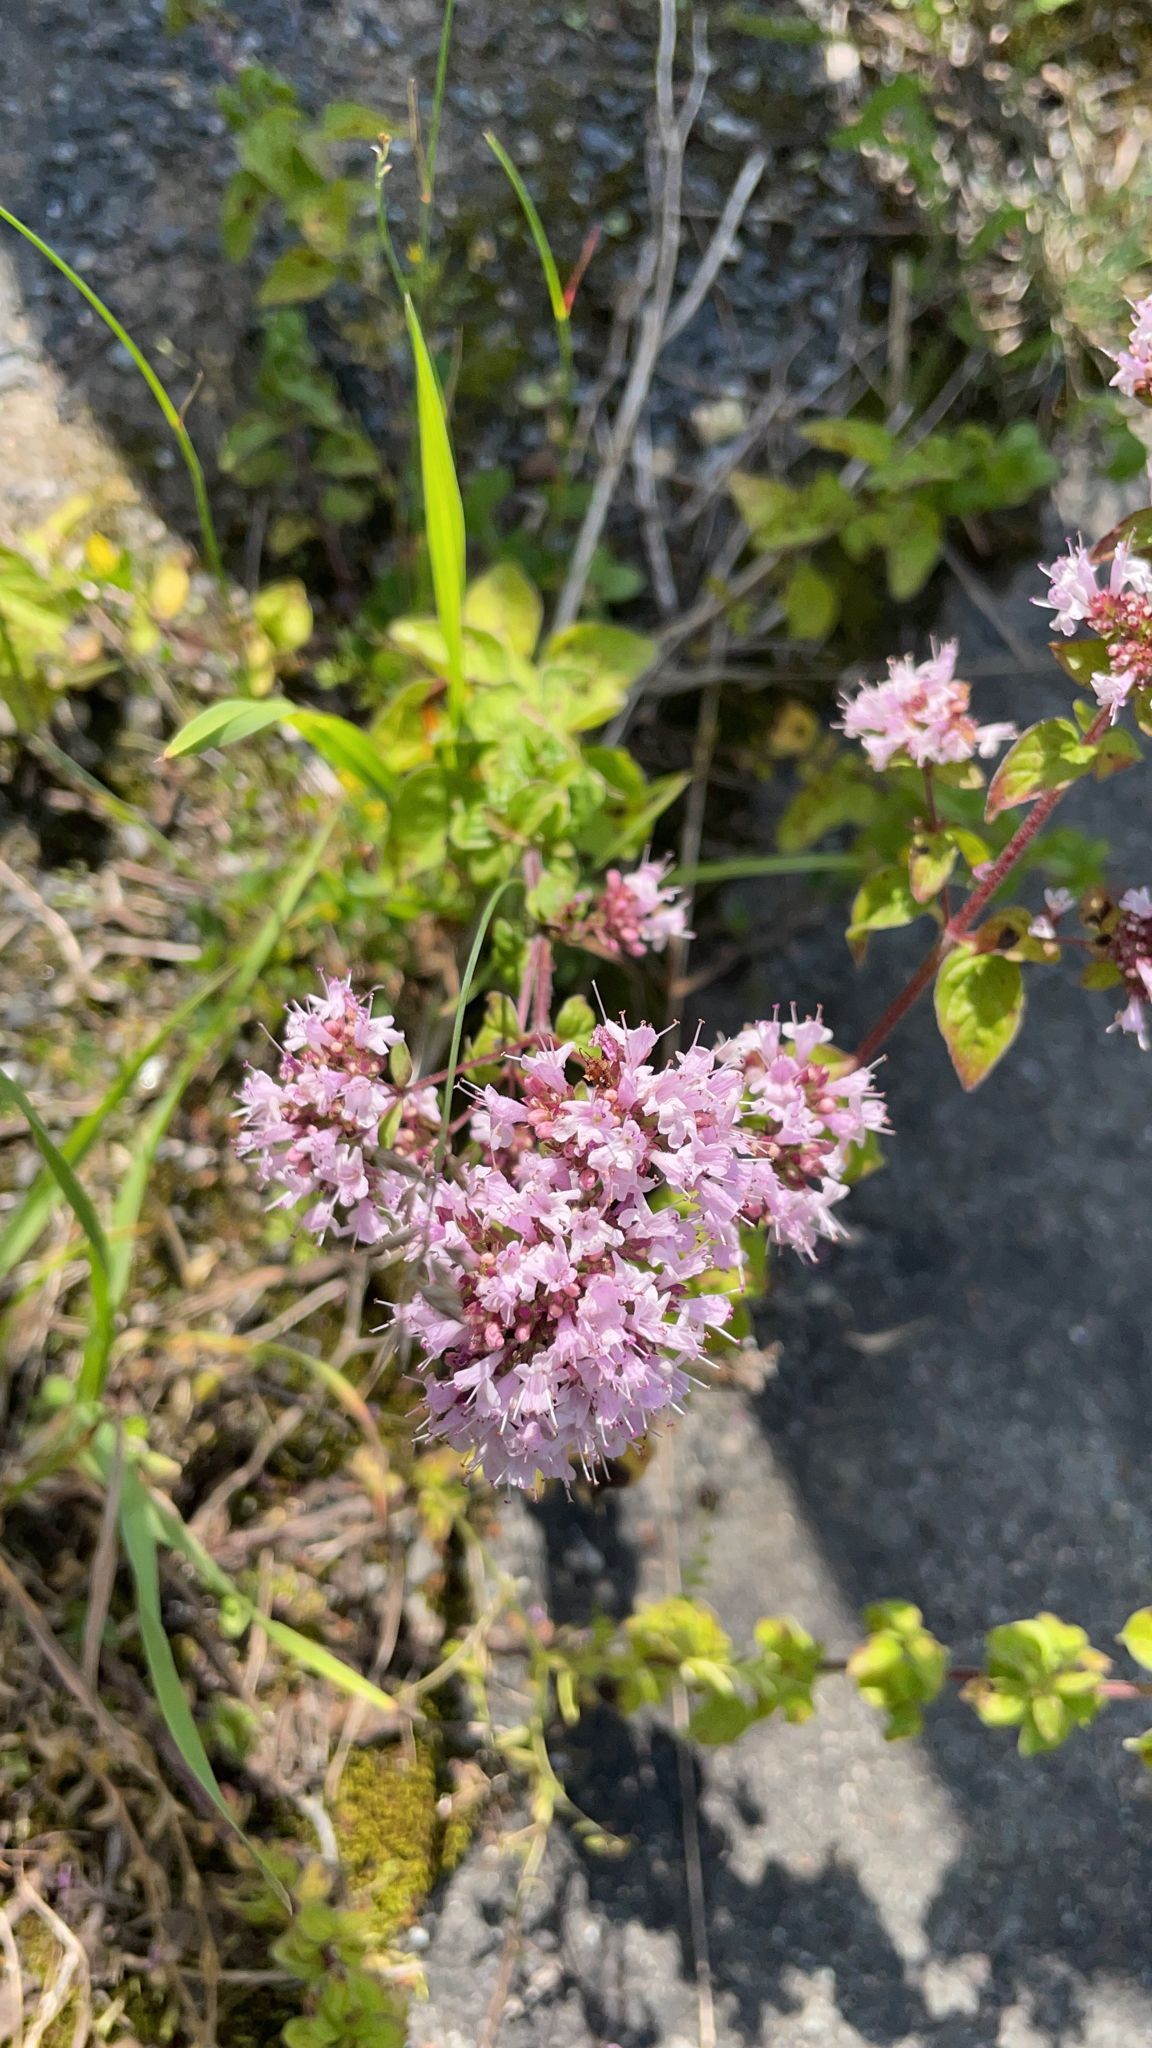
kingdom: Plantae
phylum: Tracheophyta
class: Magnoliopsida
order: Lamiales
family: Lamiaceae
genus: Origanum
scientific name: Origanum vulgare
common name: Wild marjoram
